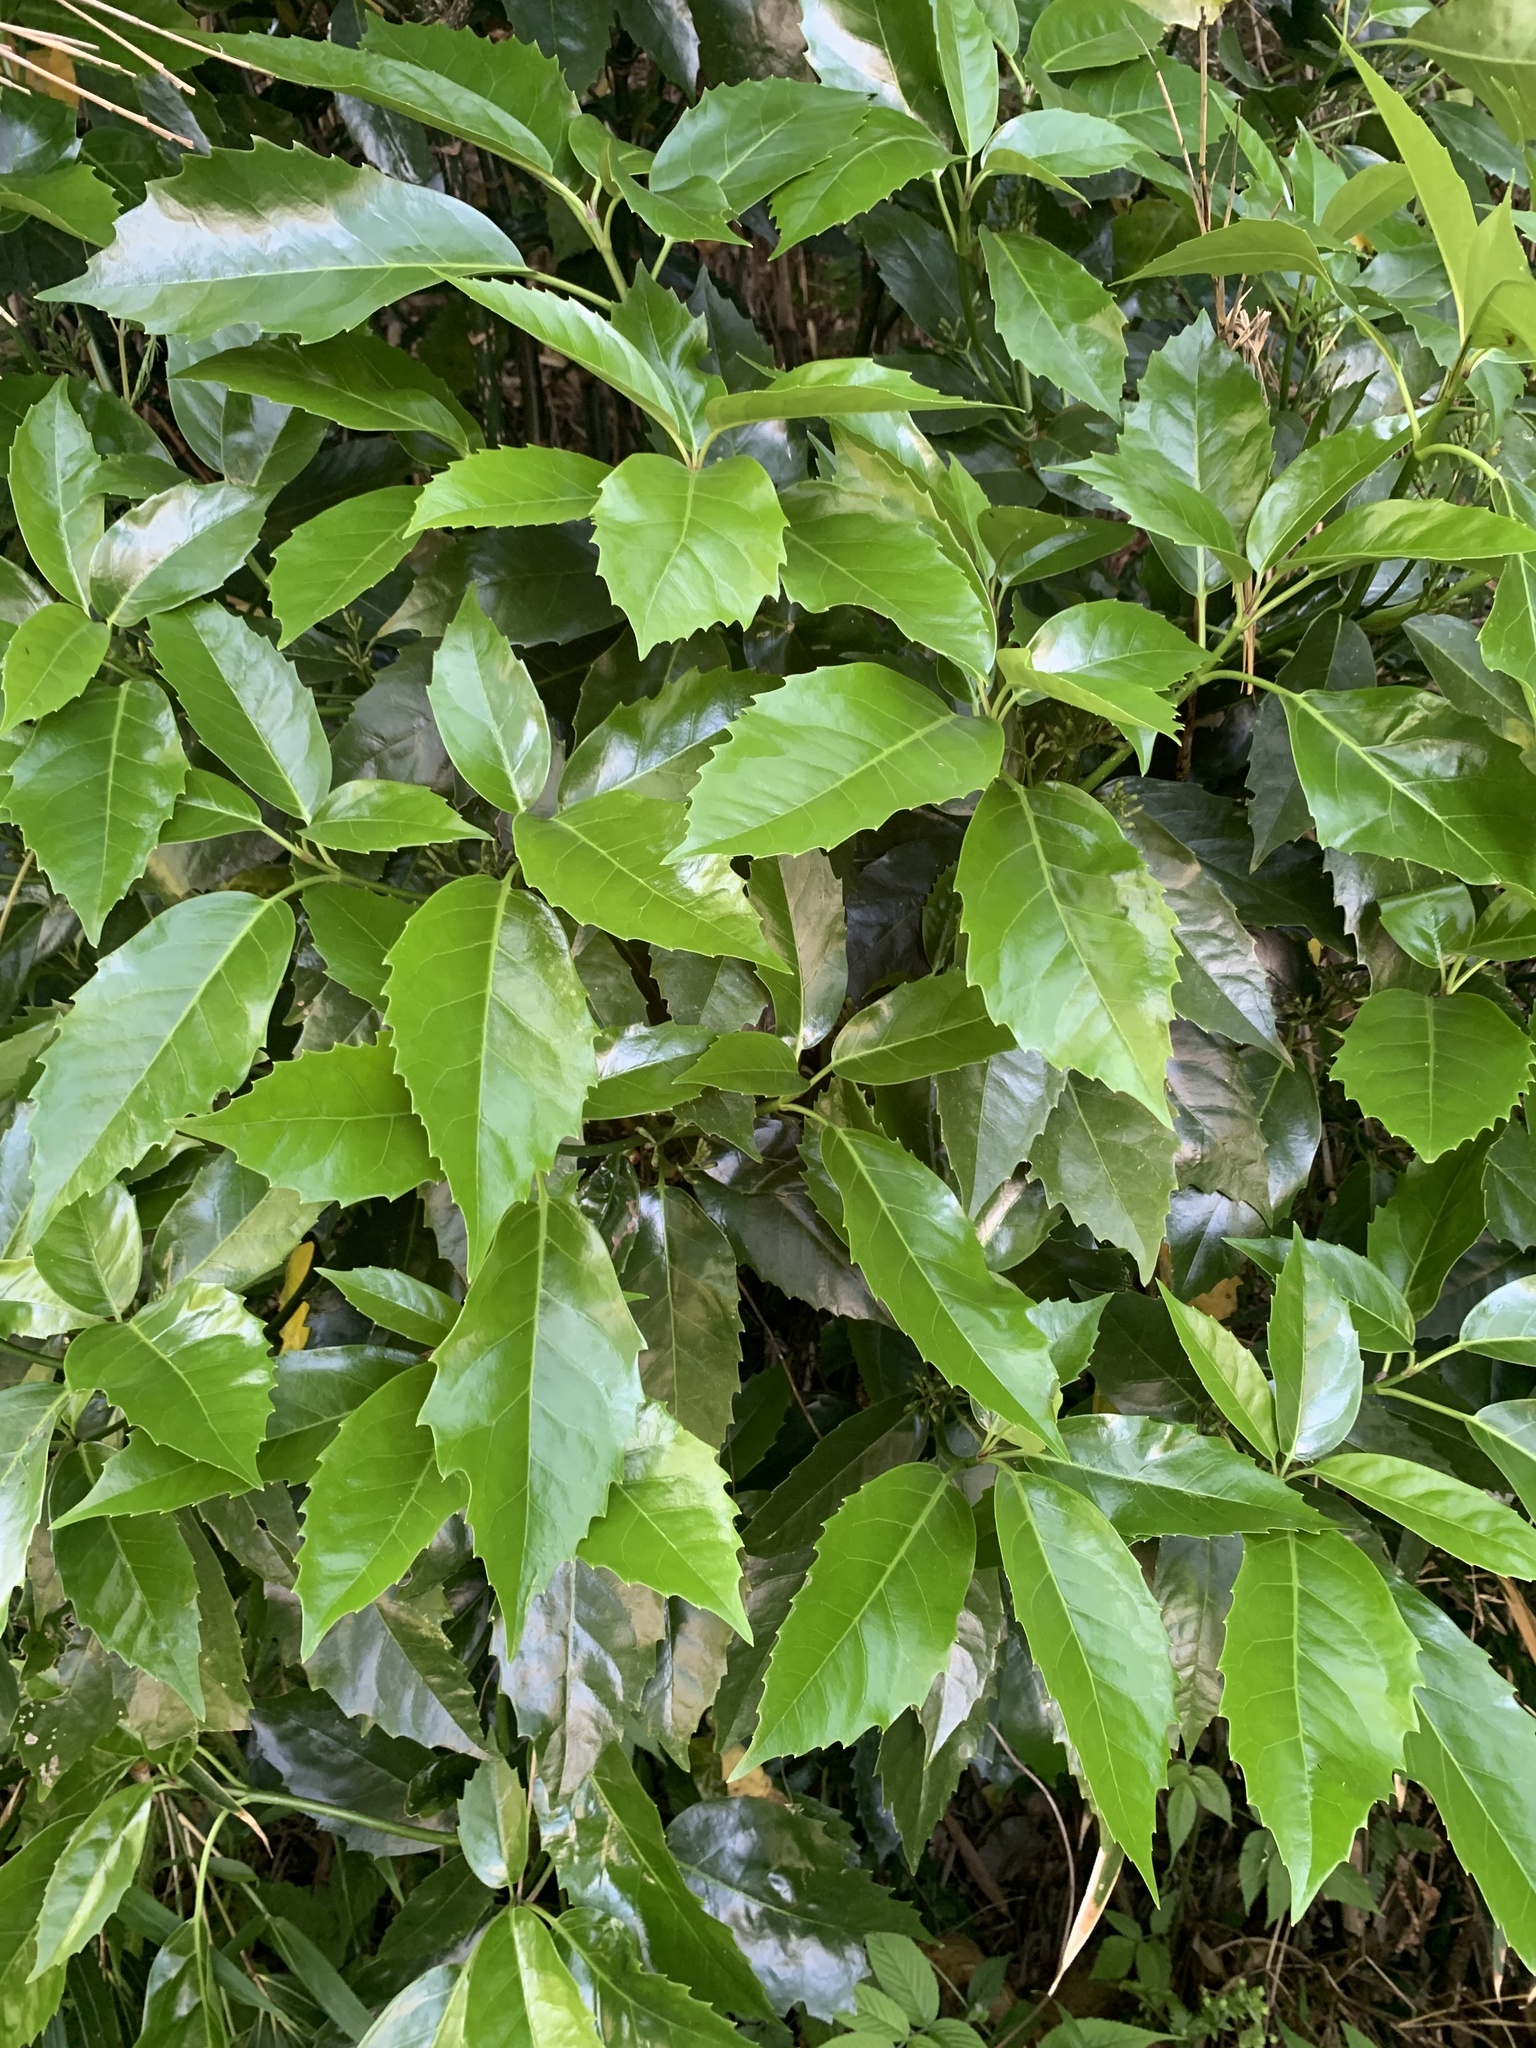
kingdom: Plantae
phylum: Tracheophyta
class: Magnoliopsida
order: Garryales
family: Garryaceae
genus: Aucuba
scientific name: Aucuba japonica
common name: Spotted-laurel
